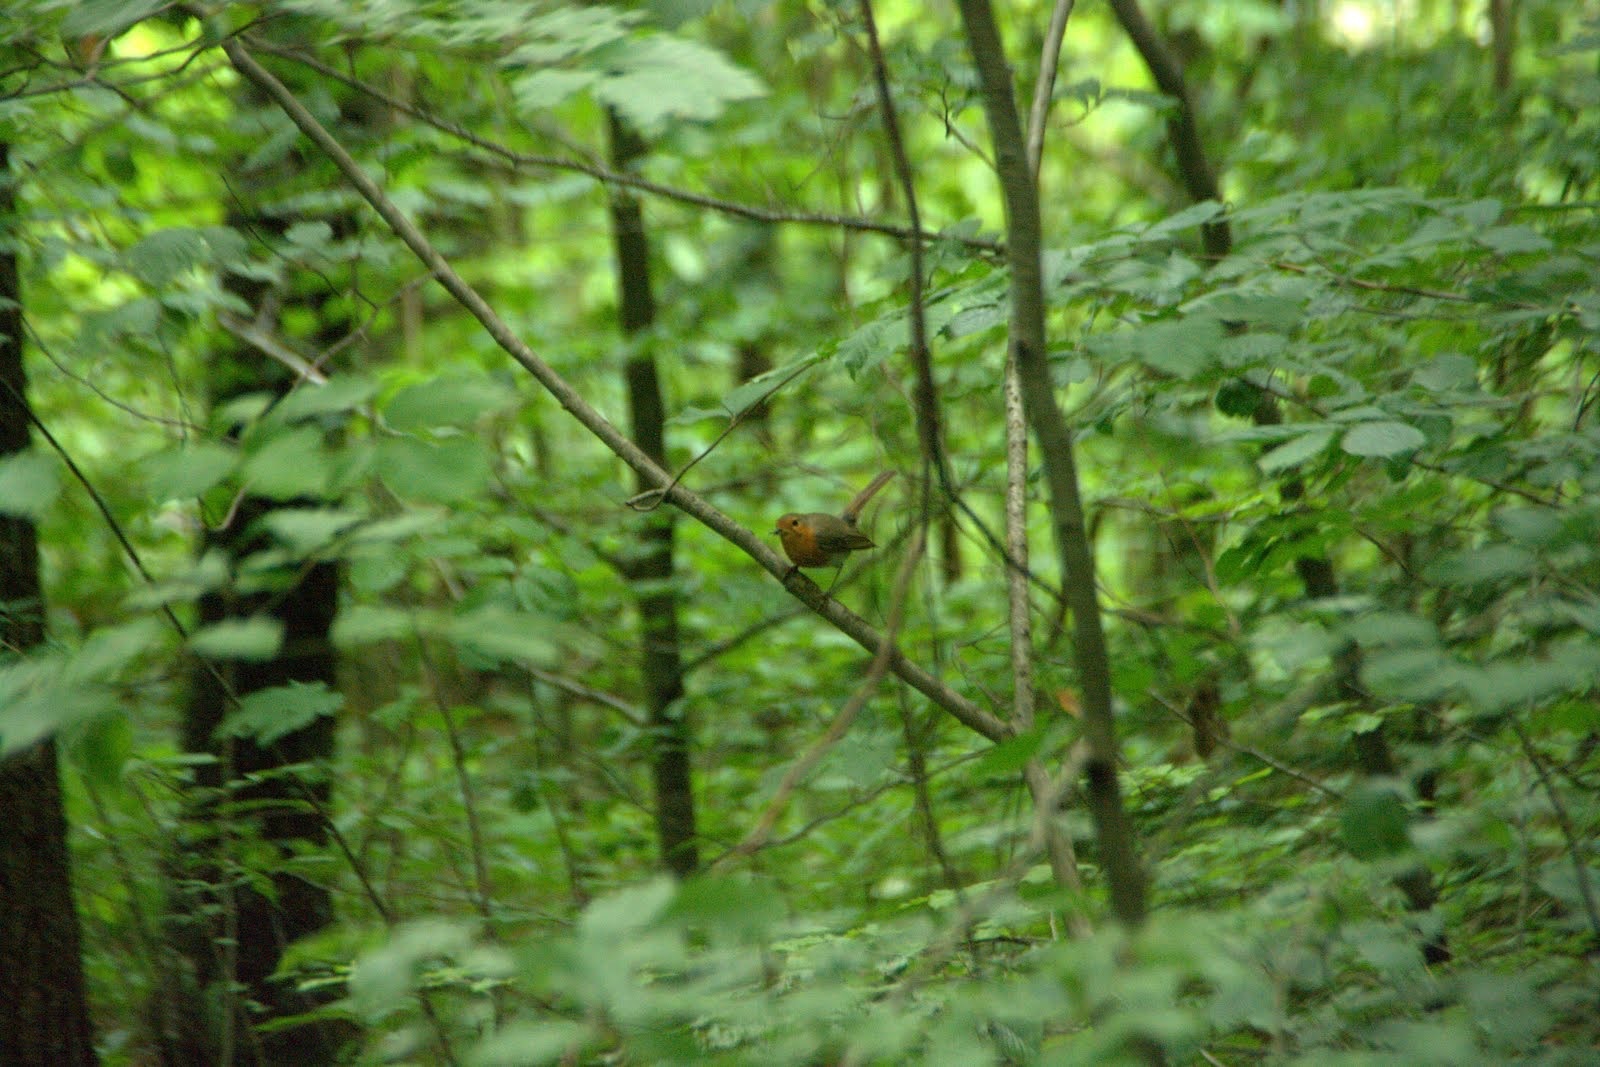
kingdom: Animalia
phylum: Chordata
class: Aves
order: Passeriformes
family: Muscicapidae
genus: Erithacus
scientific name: Erithacus rubecula
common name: European robin
